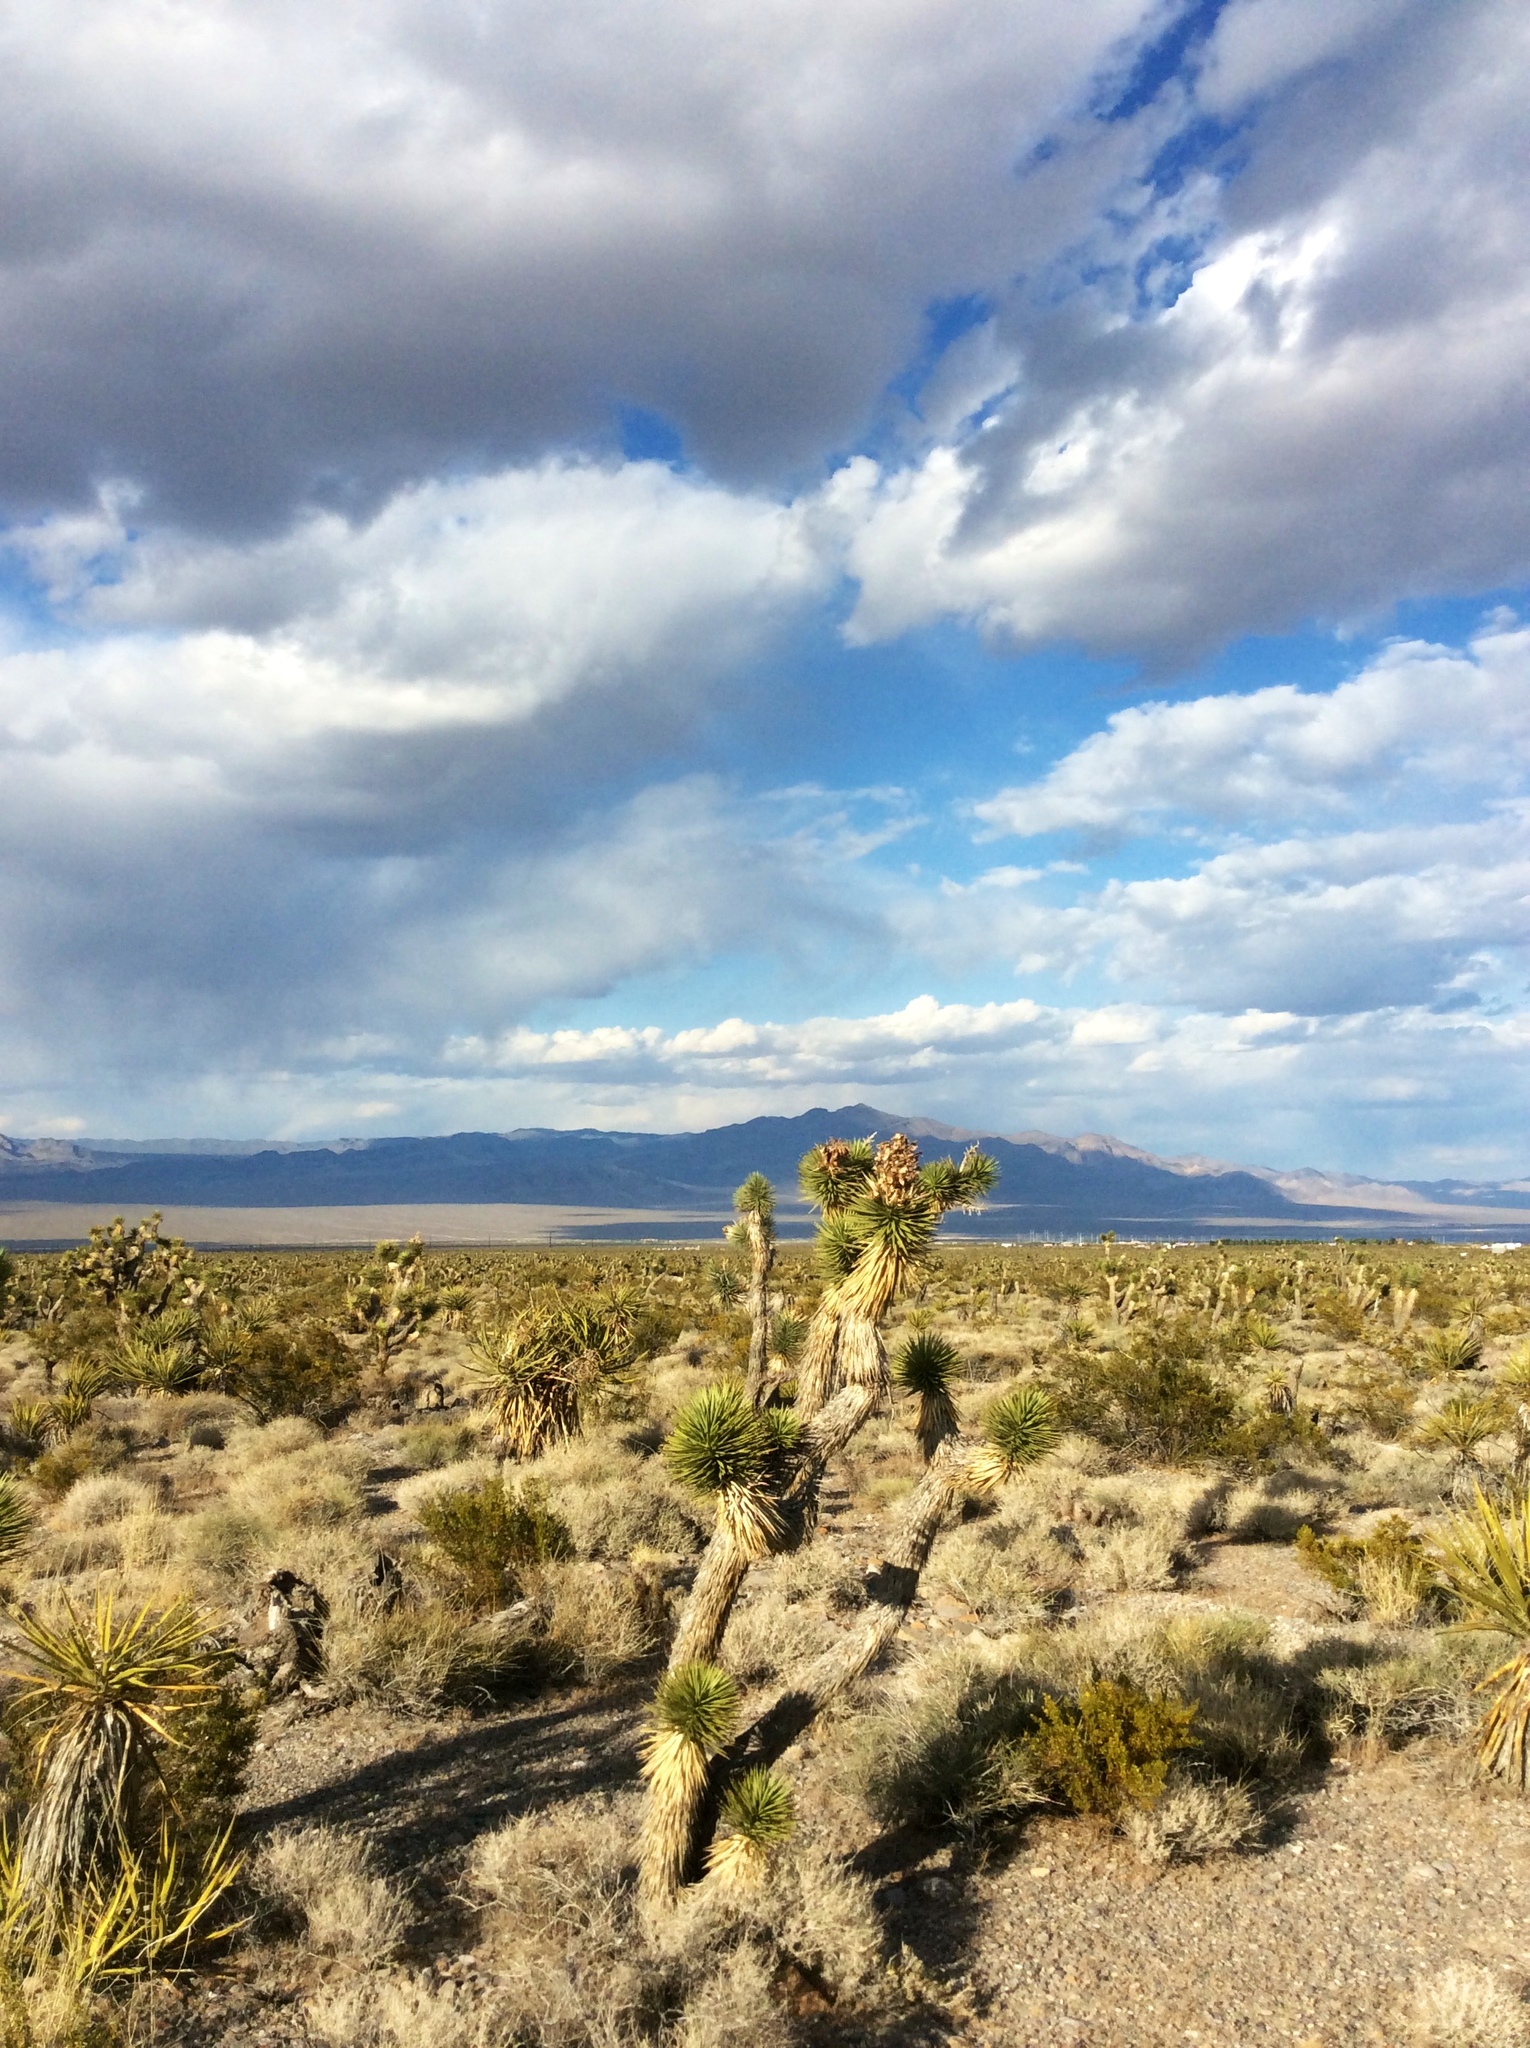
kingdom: Plantae
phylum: Tracheophyta
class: Liliopsida
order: Asparagales
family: Asparagaceae
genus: Yucca
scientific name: Yucca brevifolia
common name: Joshua tree
